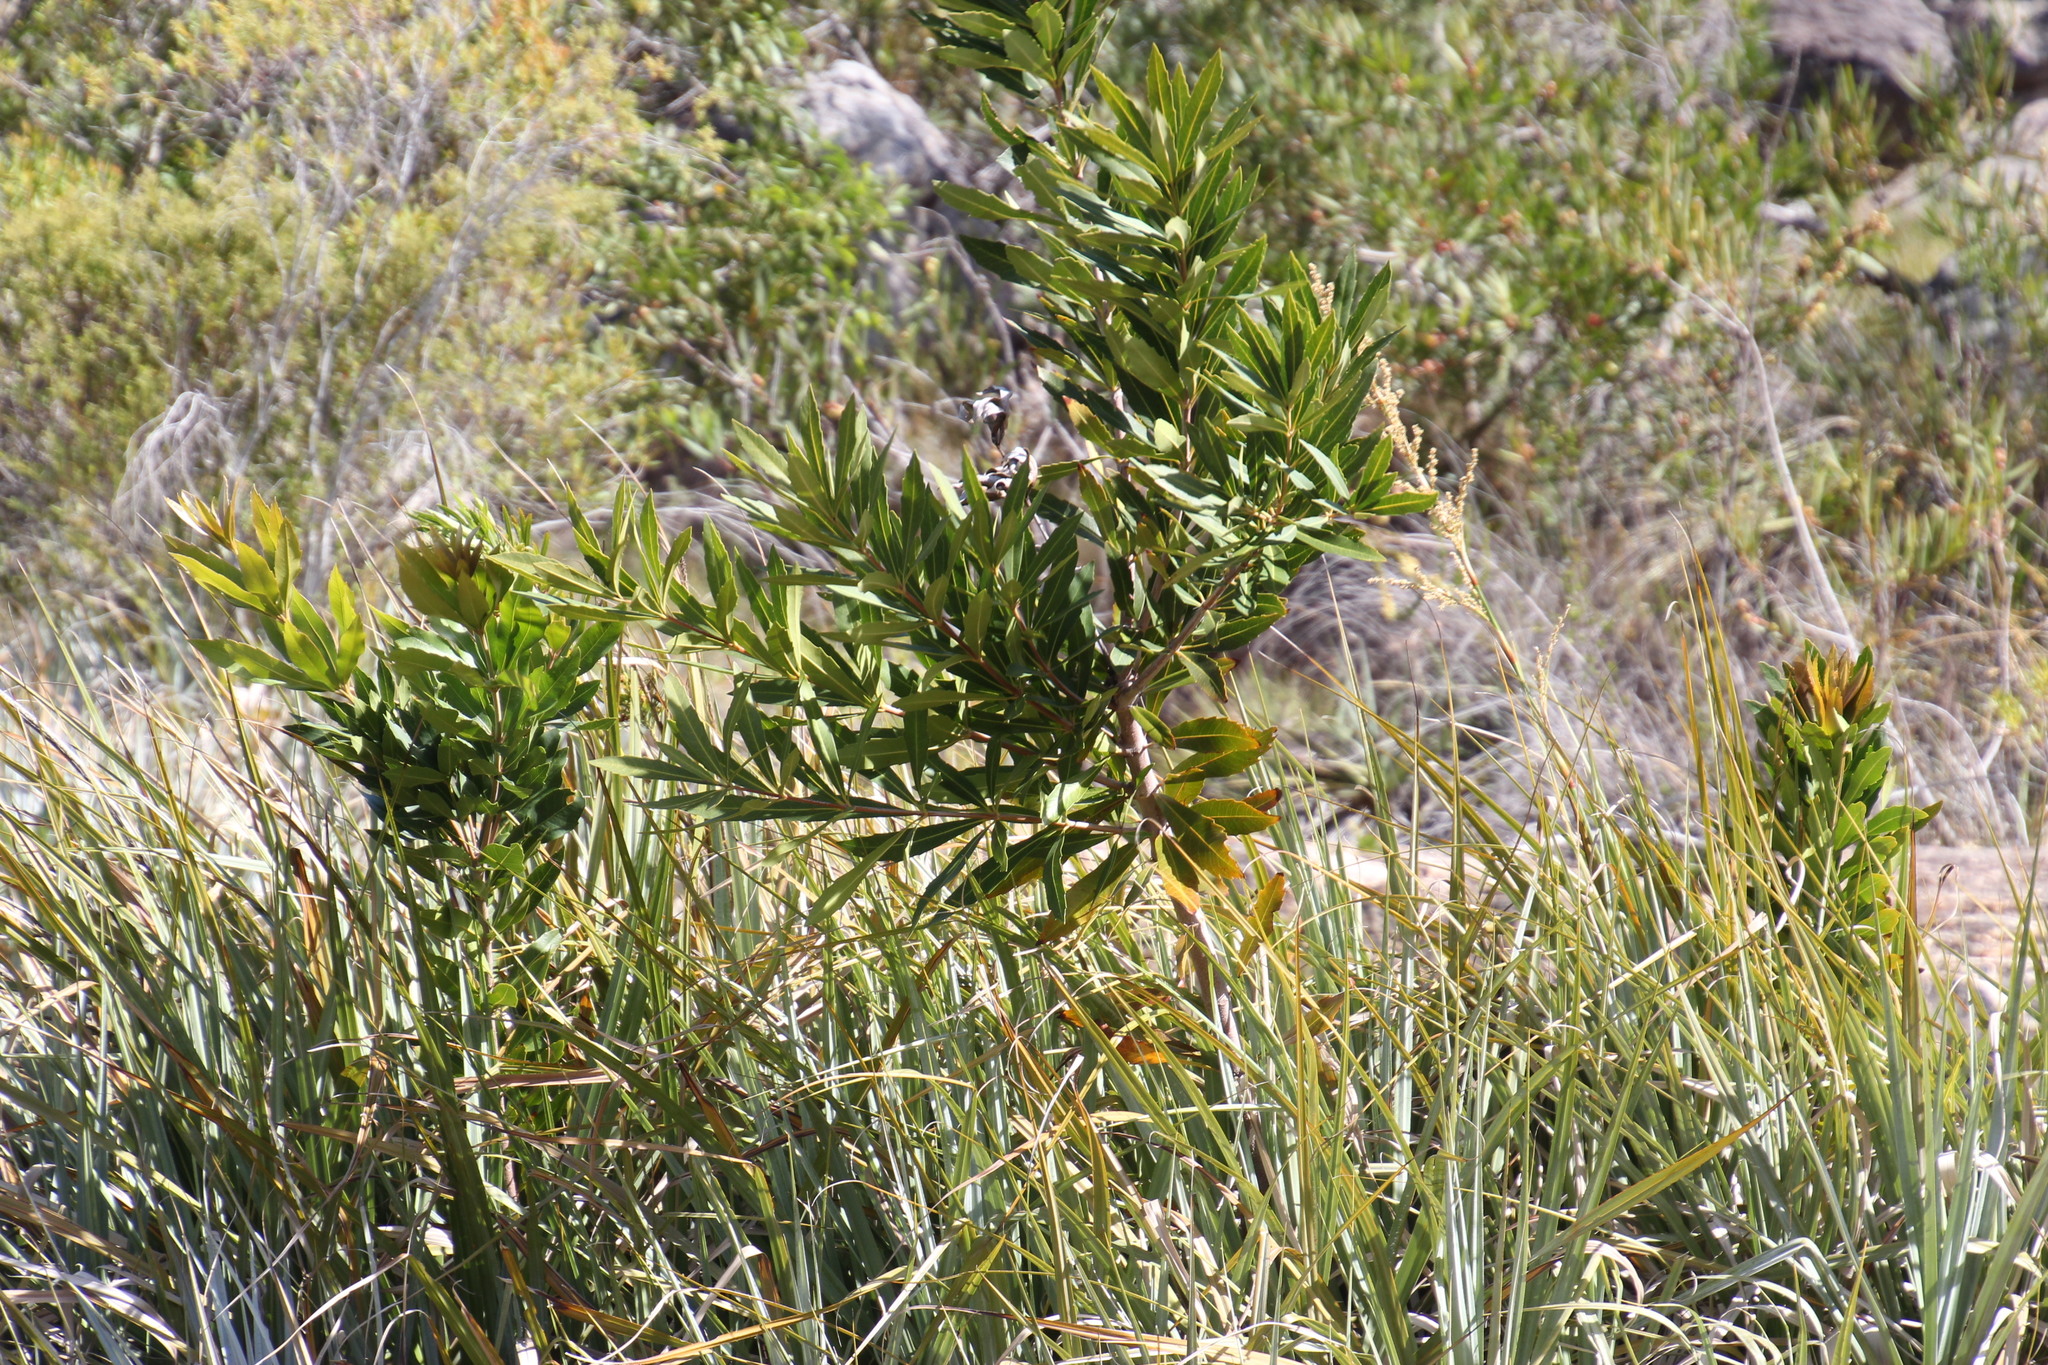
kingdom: Plantae
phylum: Tracheophyta
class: Magnoliopsida
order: Proteales
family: Proteaceae
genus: Brabejum
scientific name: Brabejum stellatifolium
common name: Wild almond
